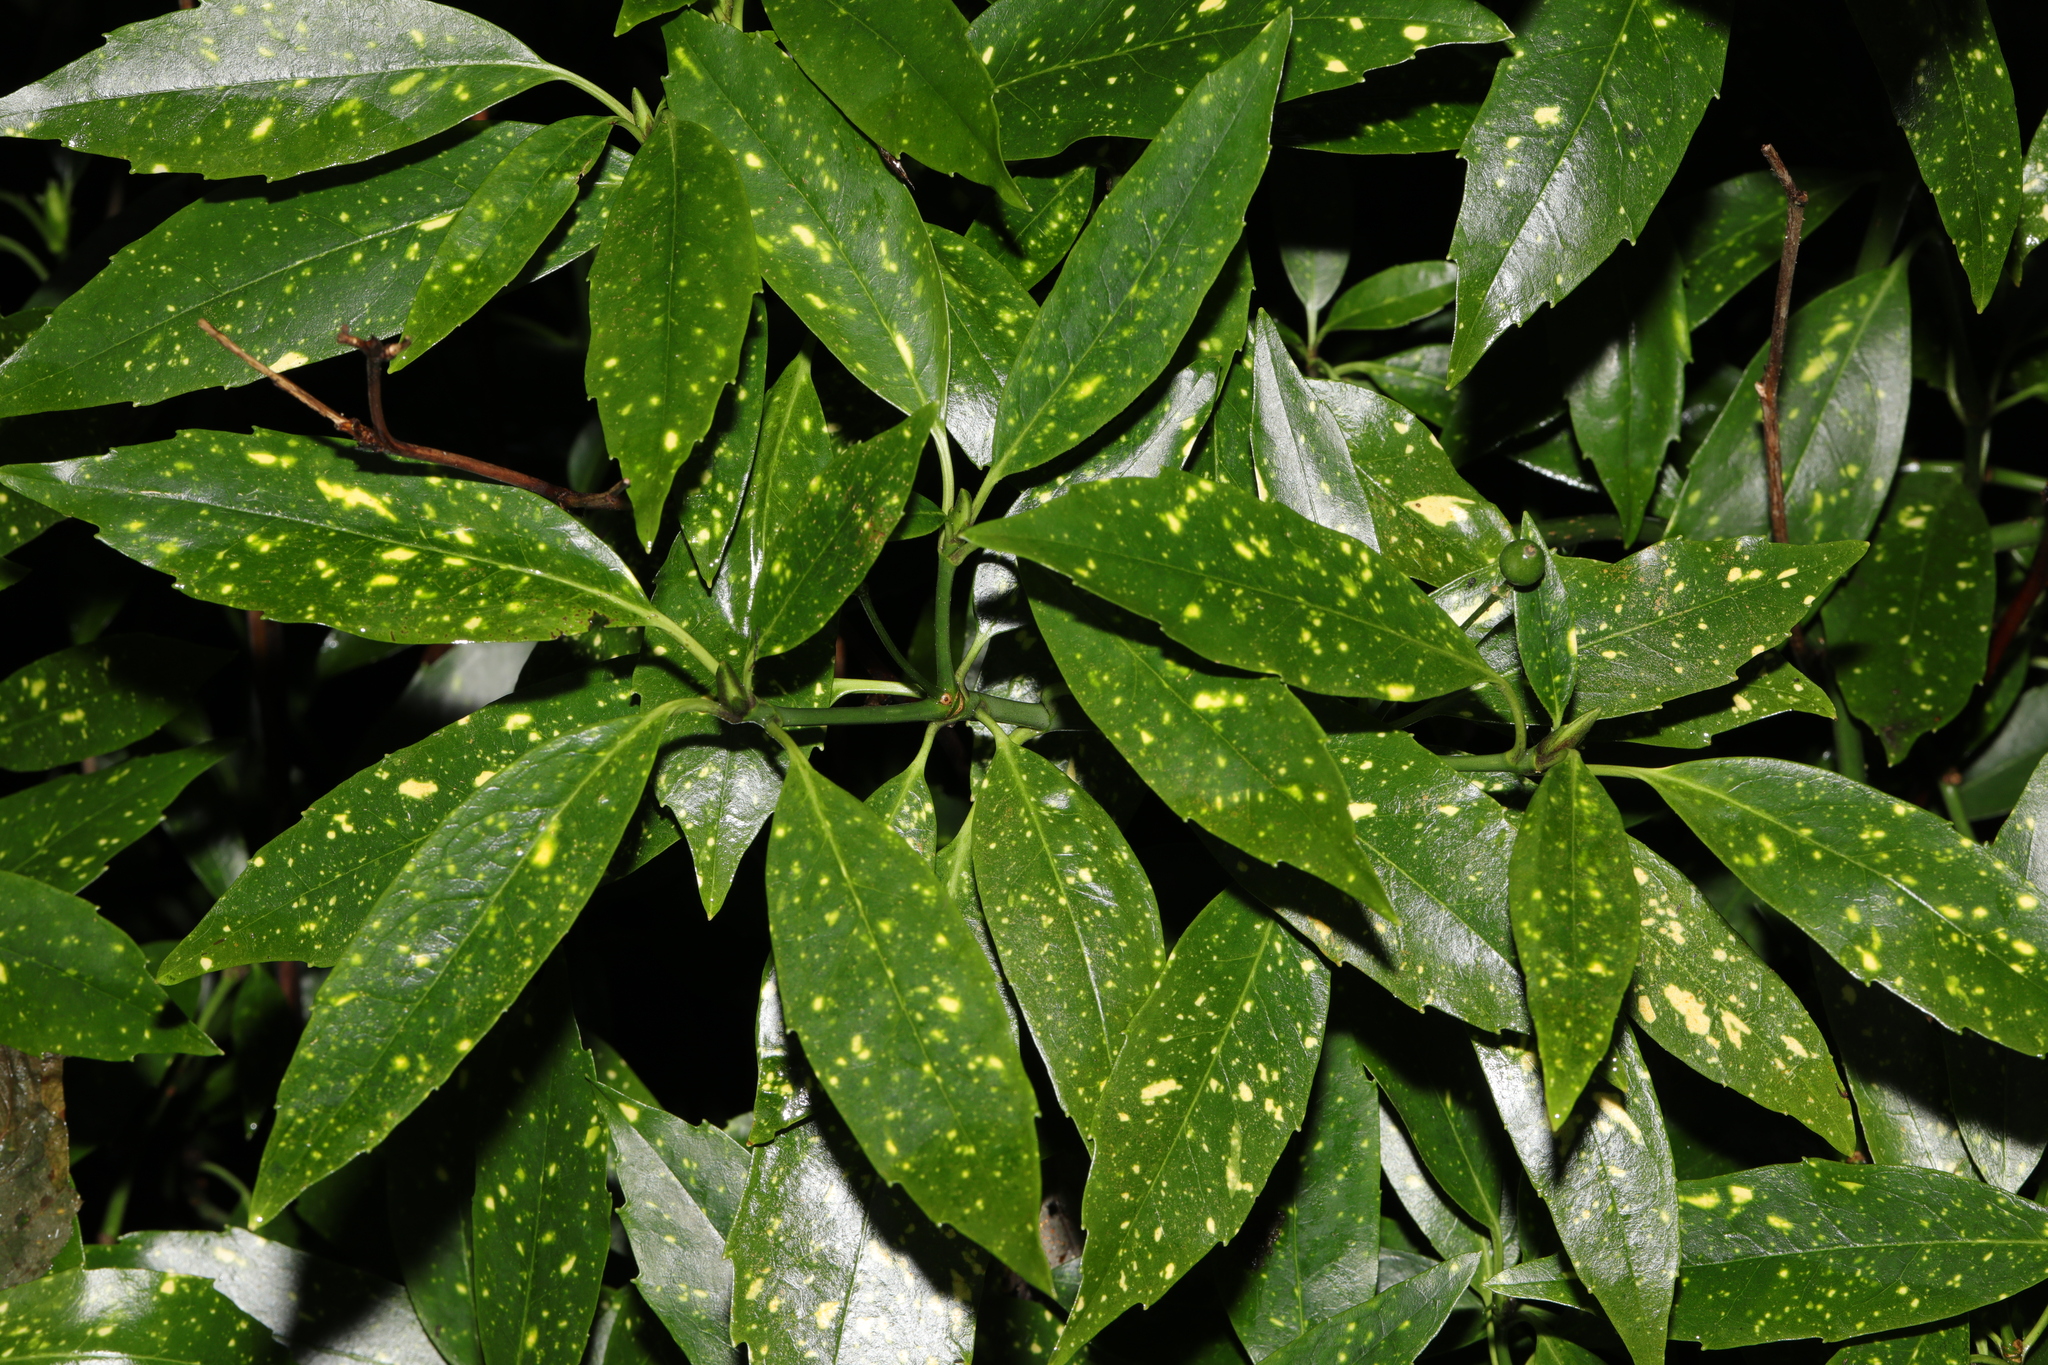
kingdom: Plantae
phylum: Tracheophyta
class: Magnoliopsida
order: Garryales
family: Garryaceae
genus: Aucuba
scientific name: Aucuba japonica
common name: Spotted-laurel
